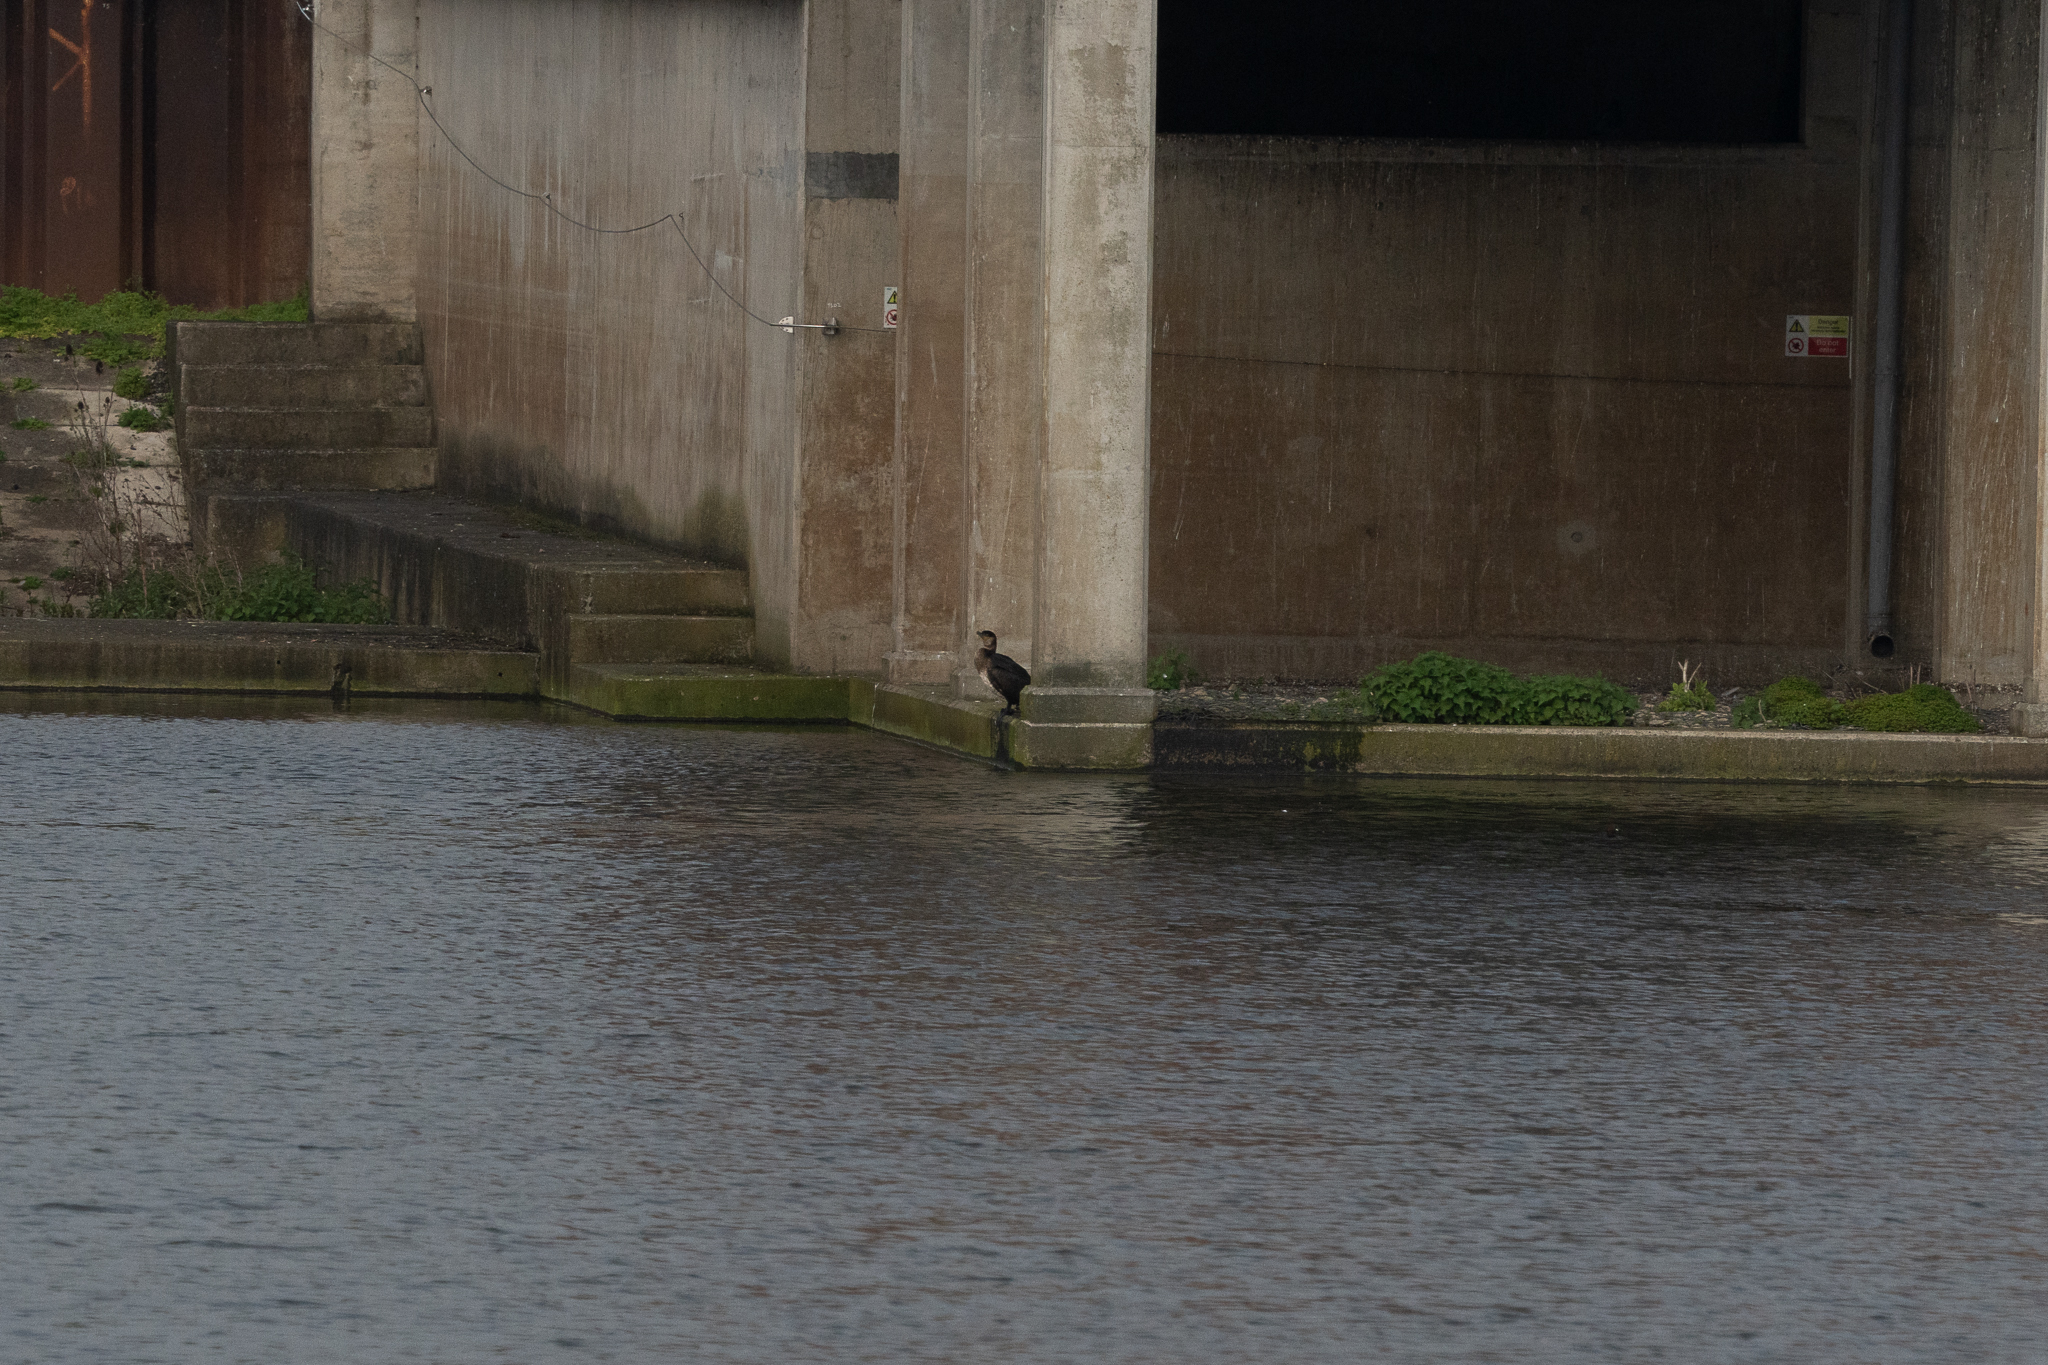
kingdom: Animalia
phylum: Chordata
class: Aves
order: Suliformes
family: Phalacrocoracidae
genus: Phalacrocorax
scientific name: Phalacrocorax carbo
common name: Great cormorant
